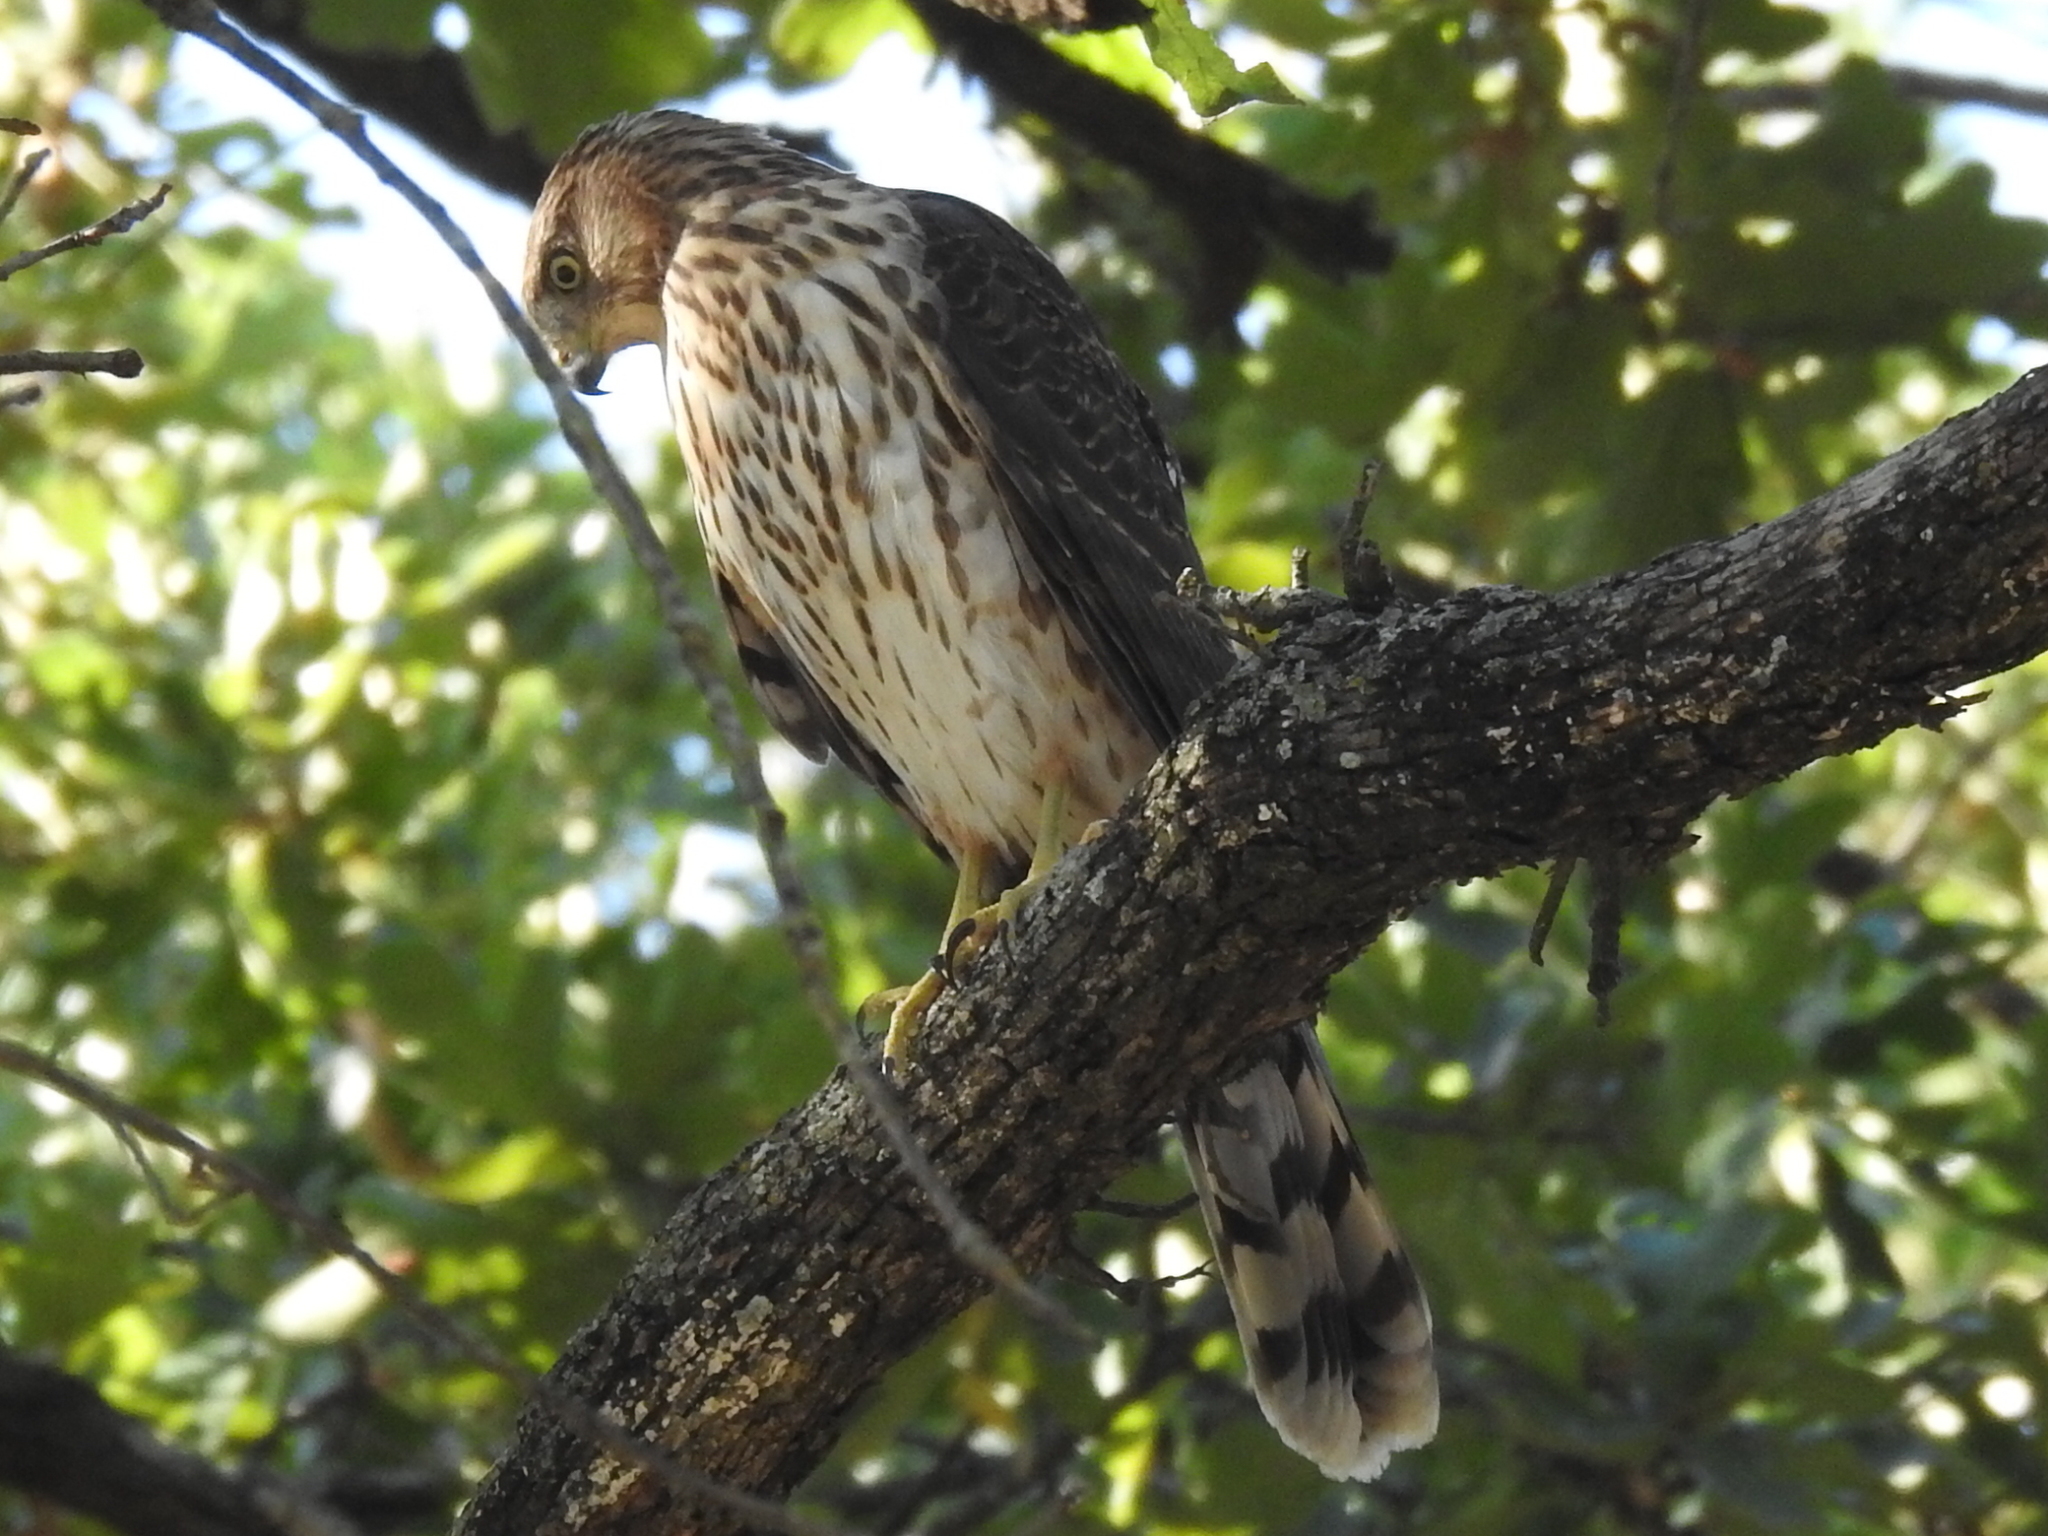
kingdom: Animalia
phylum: Chordata
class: Aves
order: Accipitriformes
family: Accipitridae
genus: Accipiter
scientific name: Accipiter cooperii
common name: Cooper's hawk
